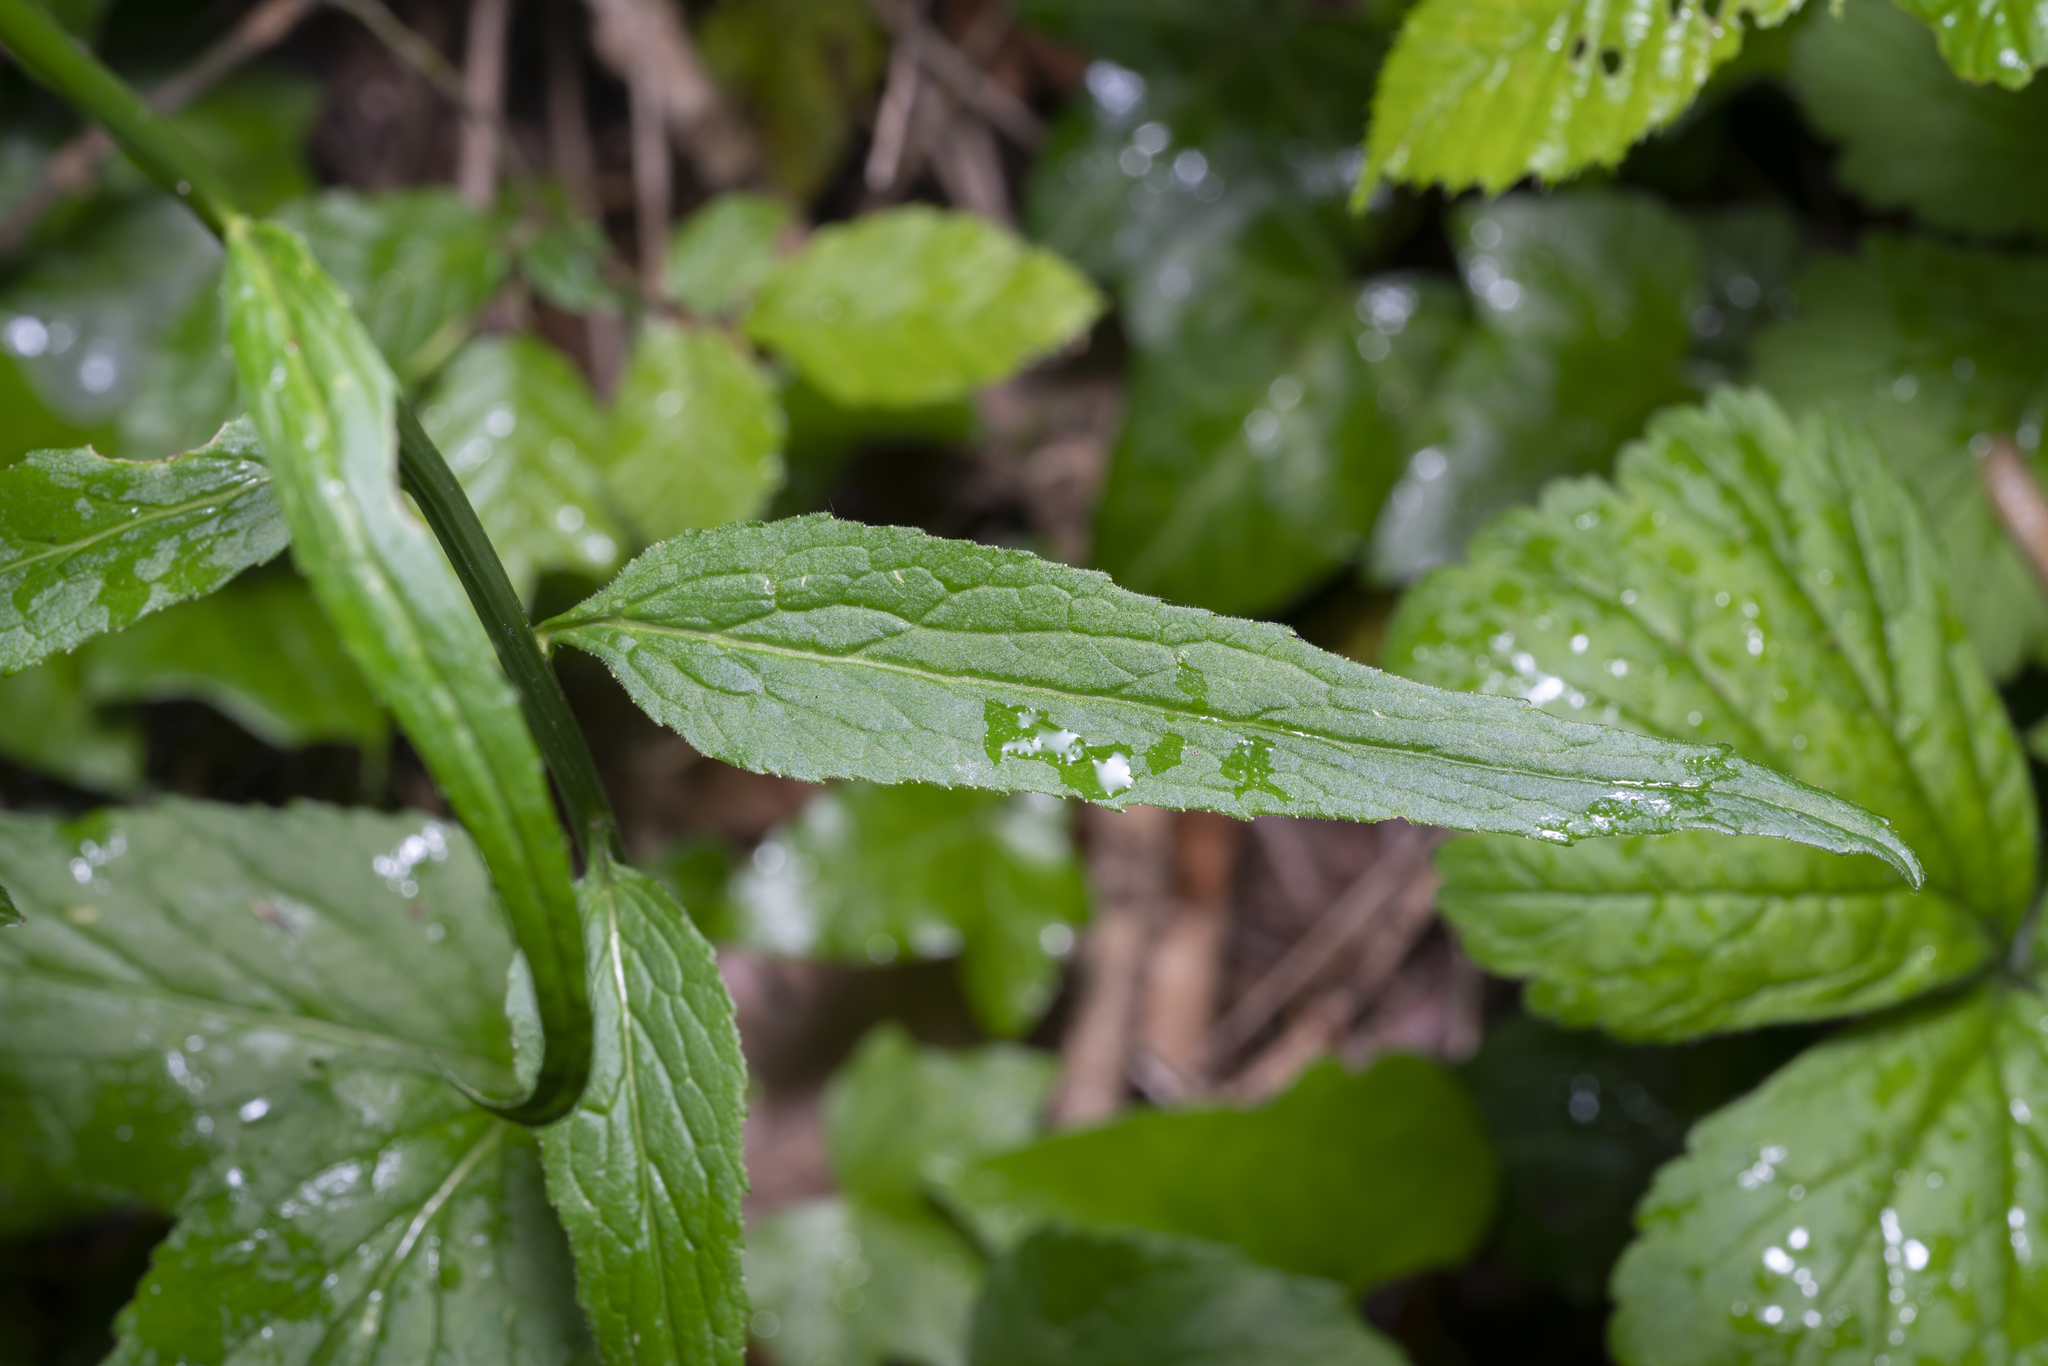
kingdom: Plantae
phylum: Tracheophyta
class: Magnoliopsida
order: Asterales
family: Campanulaceae
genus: Phyteuma
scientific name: Phyteuma spicatum
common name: Spiked rampion
